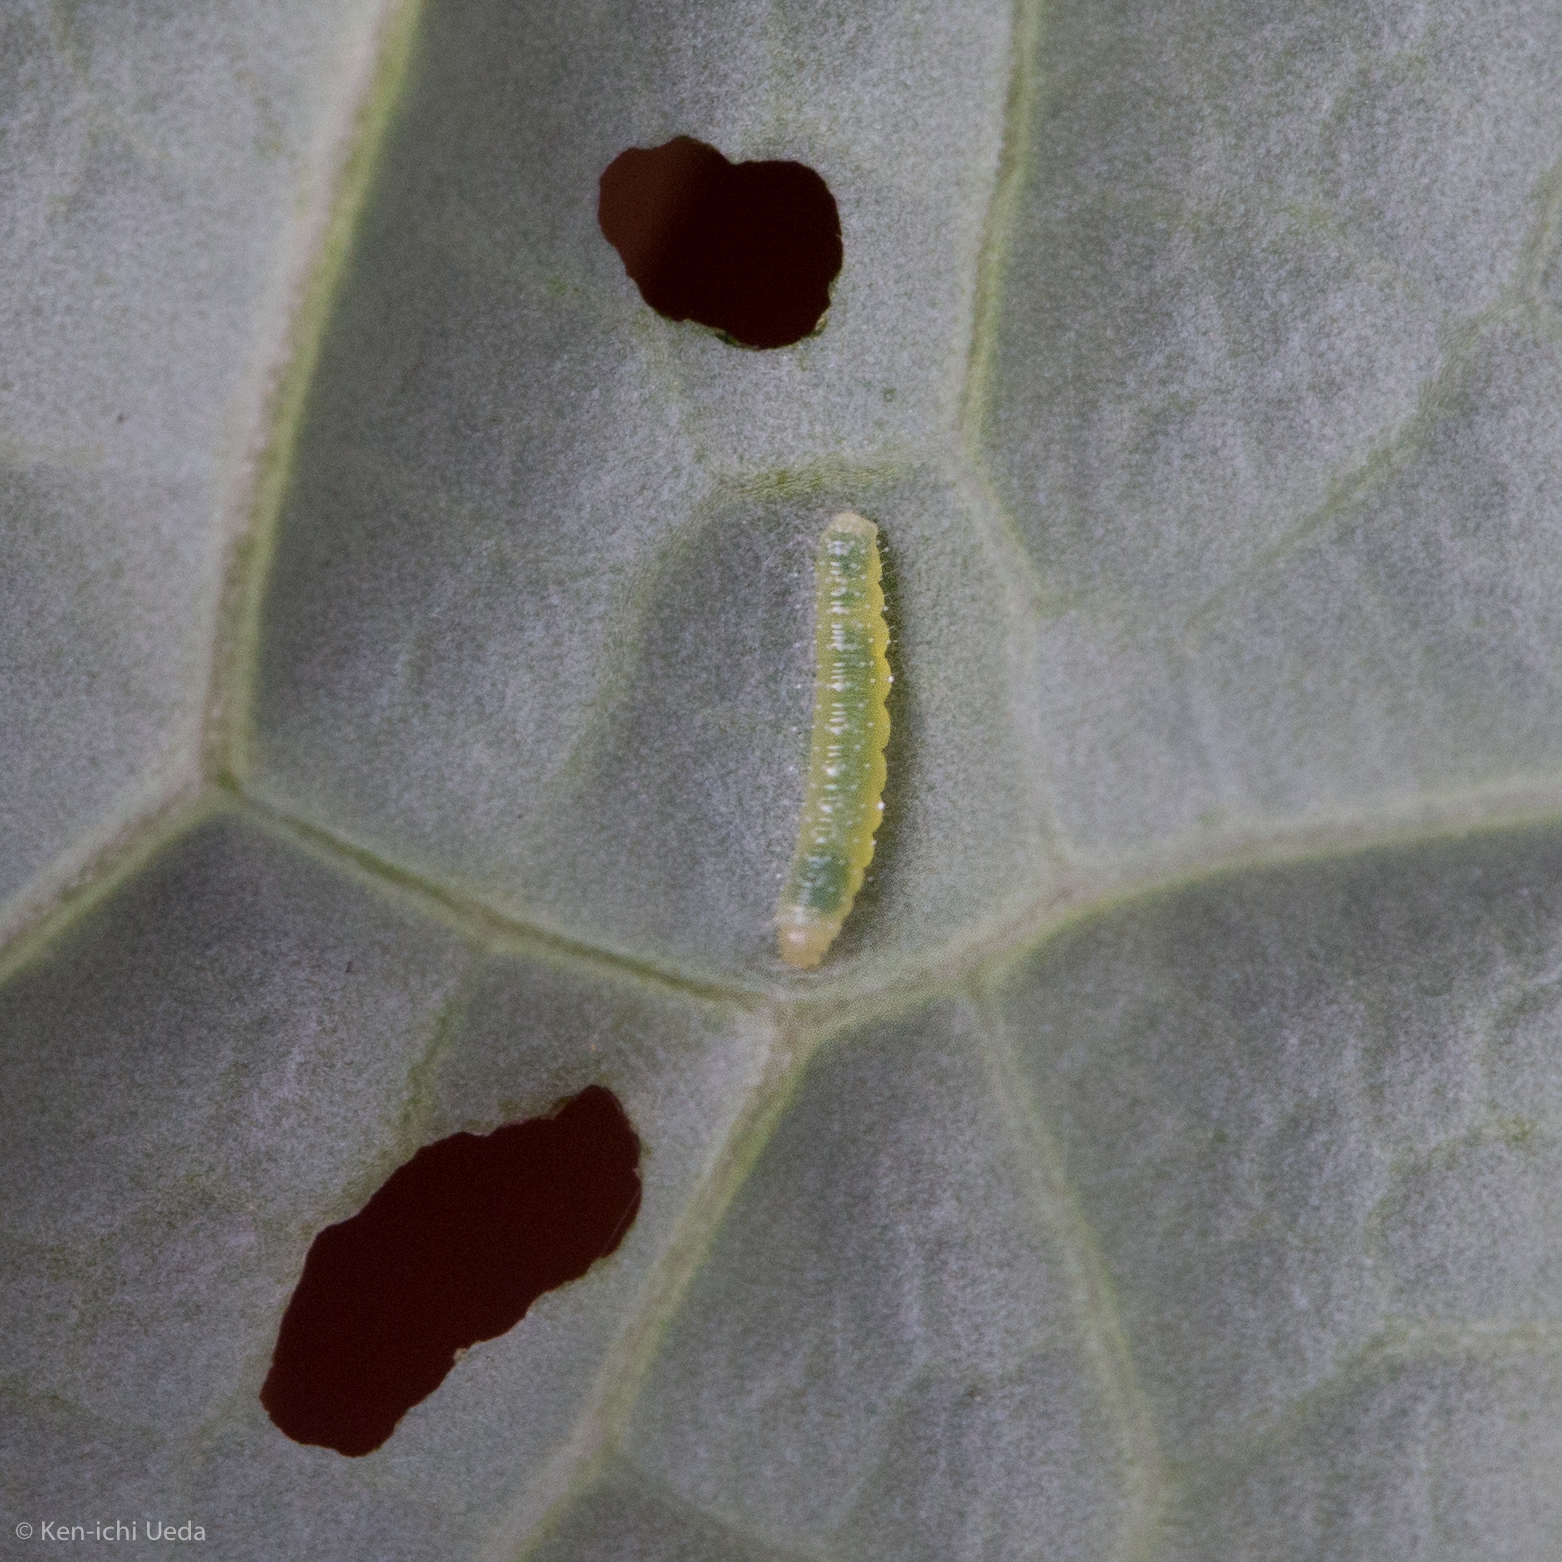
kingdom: Animalia
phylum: Arthropoda
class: Insecta
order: Lepidoptera
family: Pieridae
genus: Pieris
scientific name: Pieris rapae
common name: Small white
